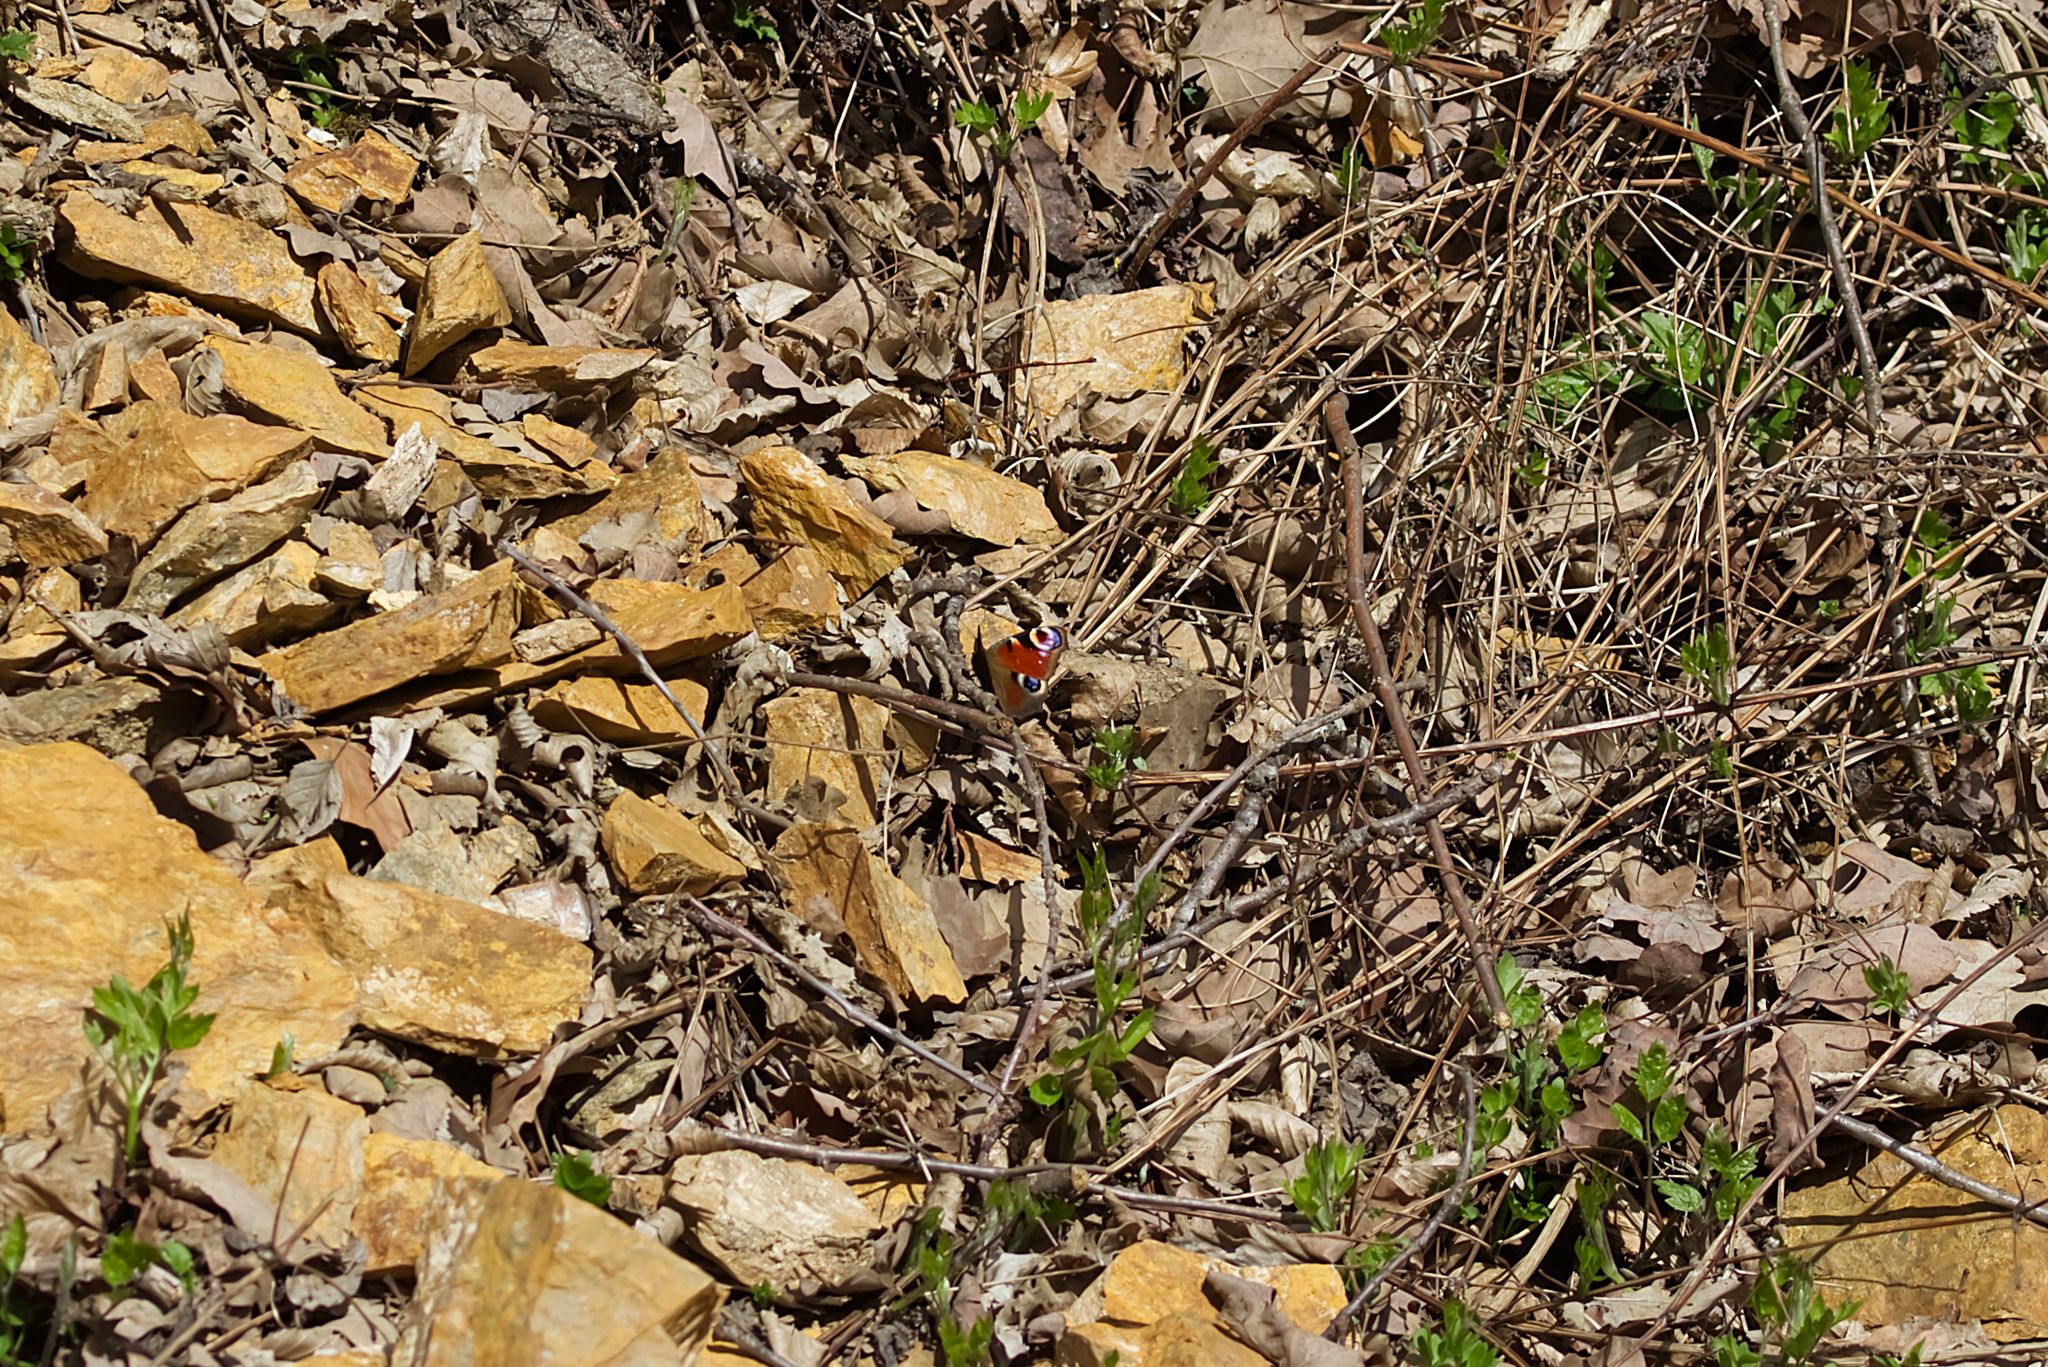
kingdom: Animalia
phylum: Arthropoda
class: Insecta
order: Lepidoptera
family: Nymphalidae
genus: Aglais
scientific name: Aglais io
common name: Peacock
